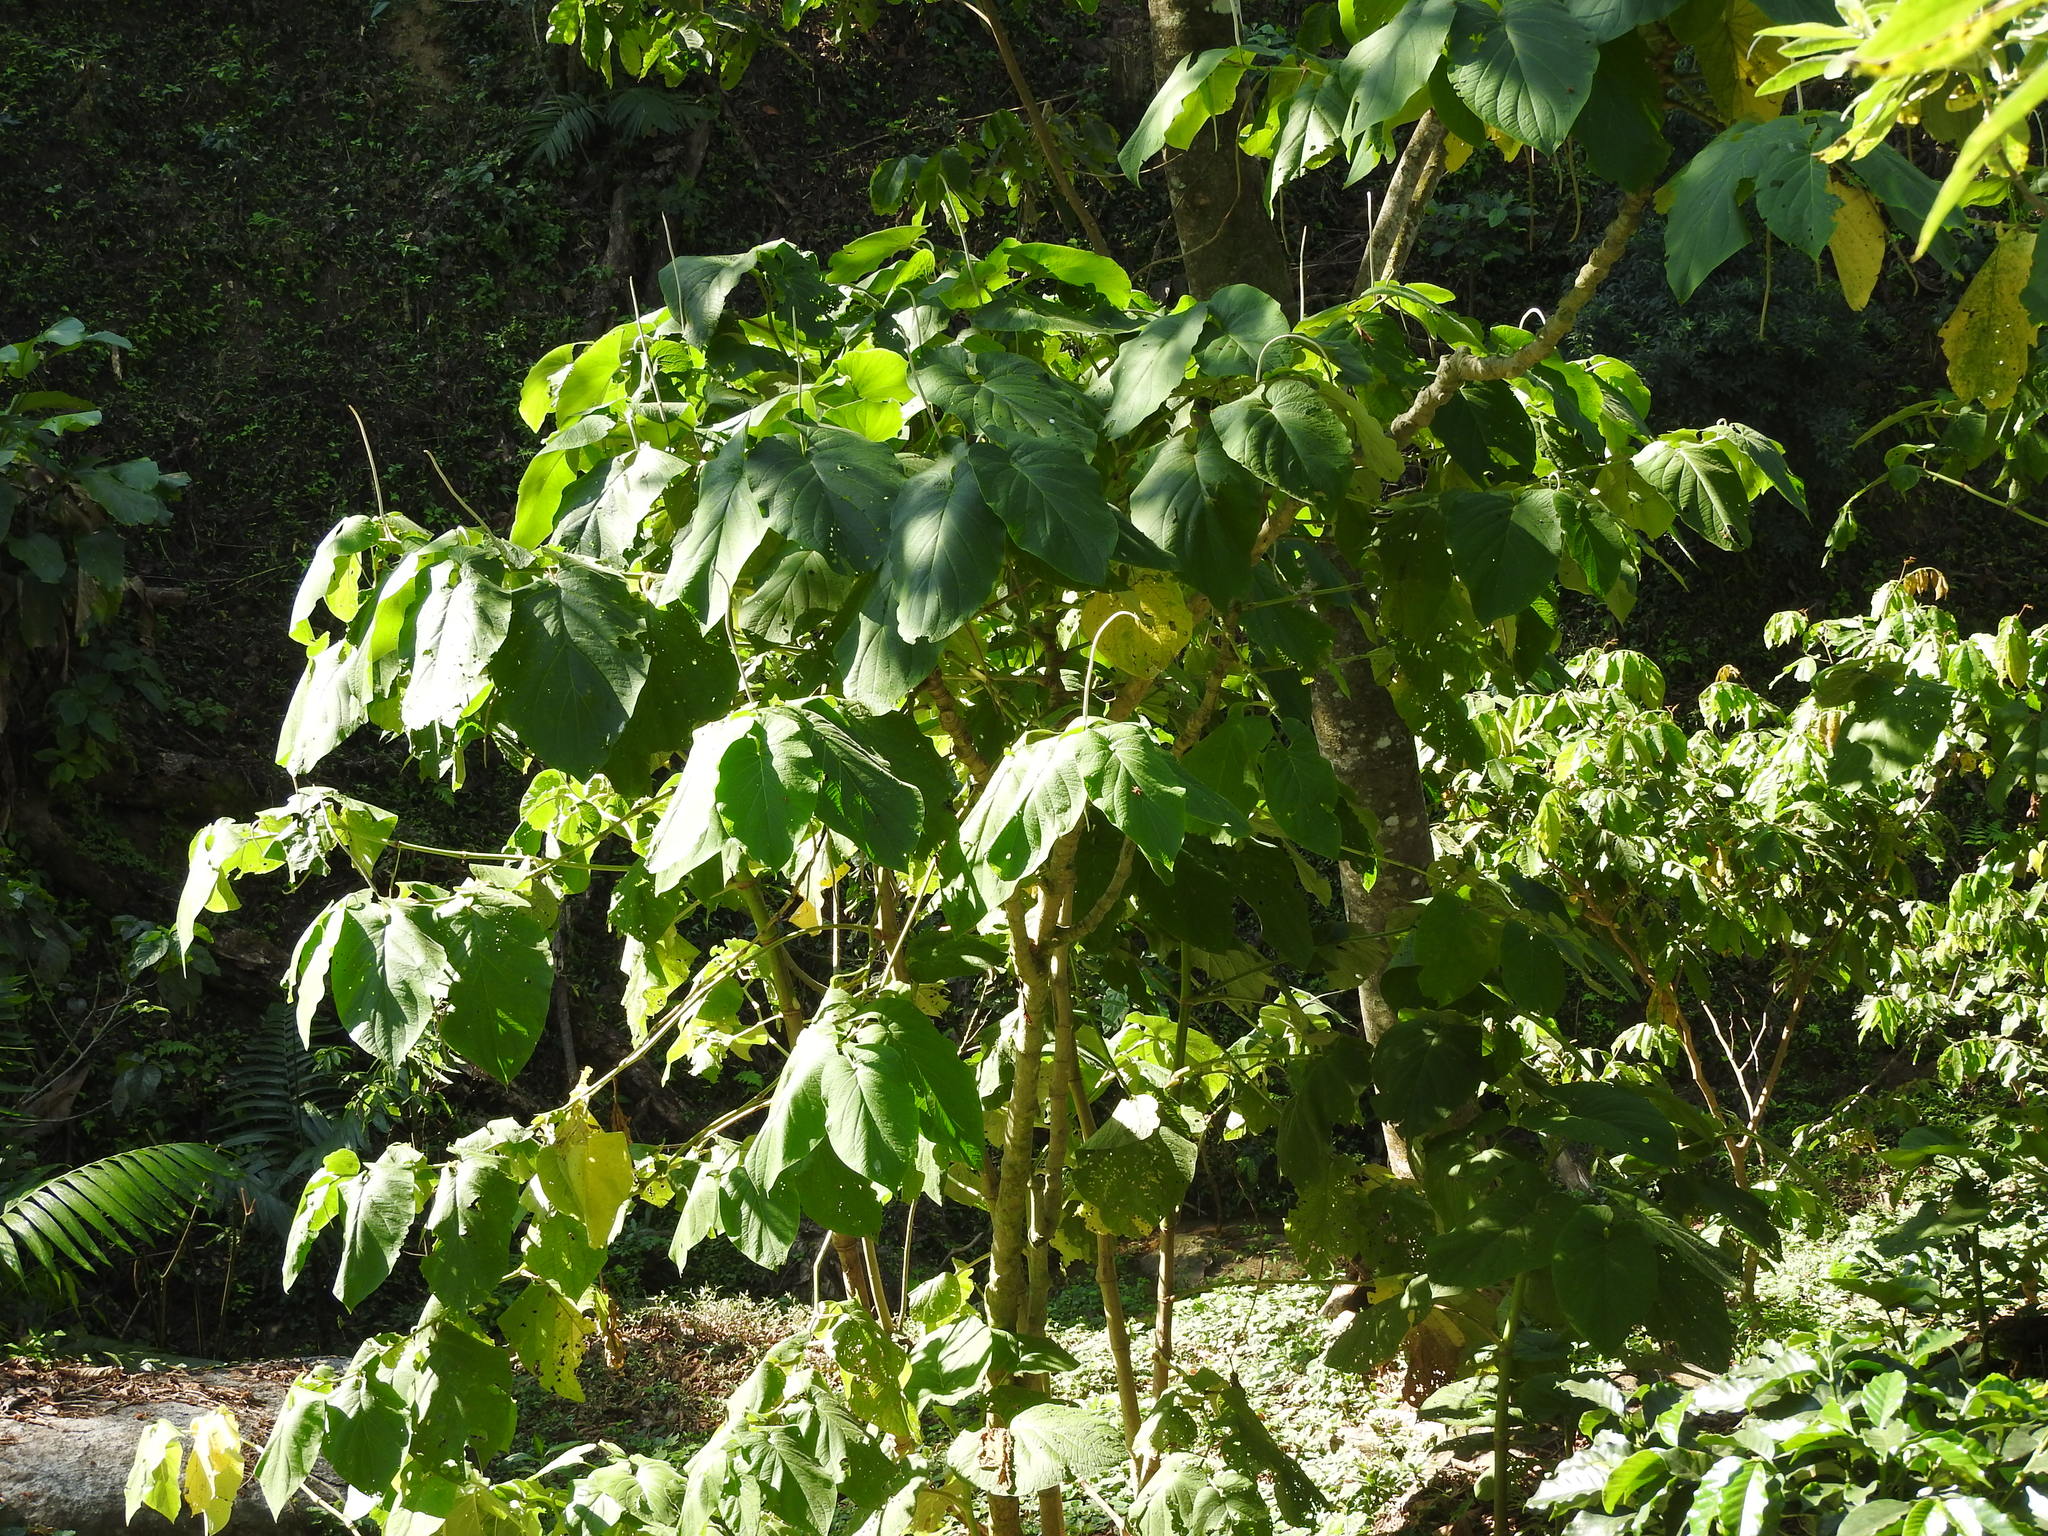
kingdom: Plantae
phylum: Tracheophyta
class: Magnoliopsida
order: Piperales
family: Piperaceae
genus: Piper
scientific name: Piper auritum
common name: Vera cruz pepper
